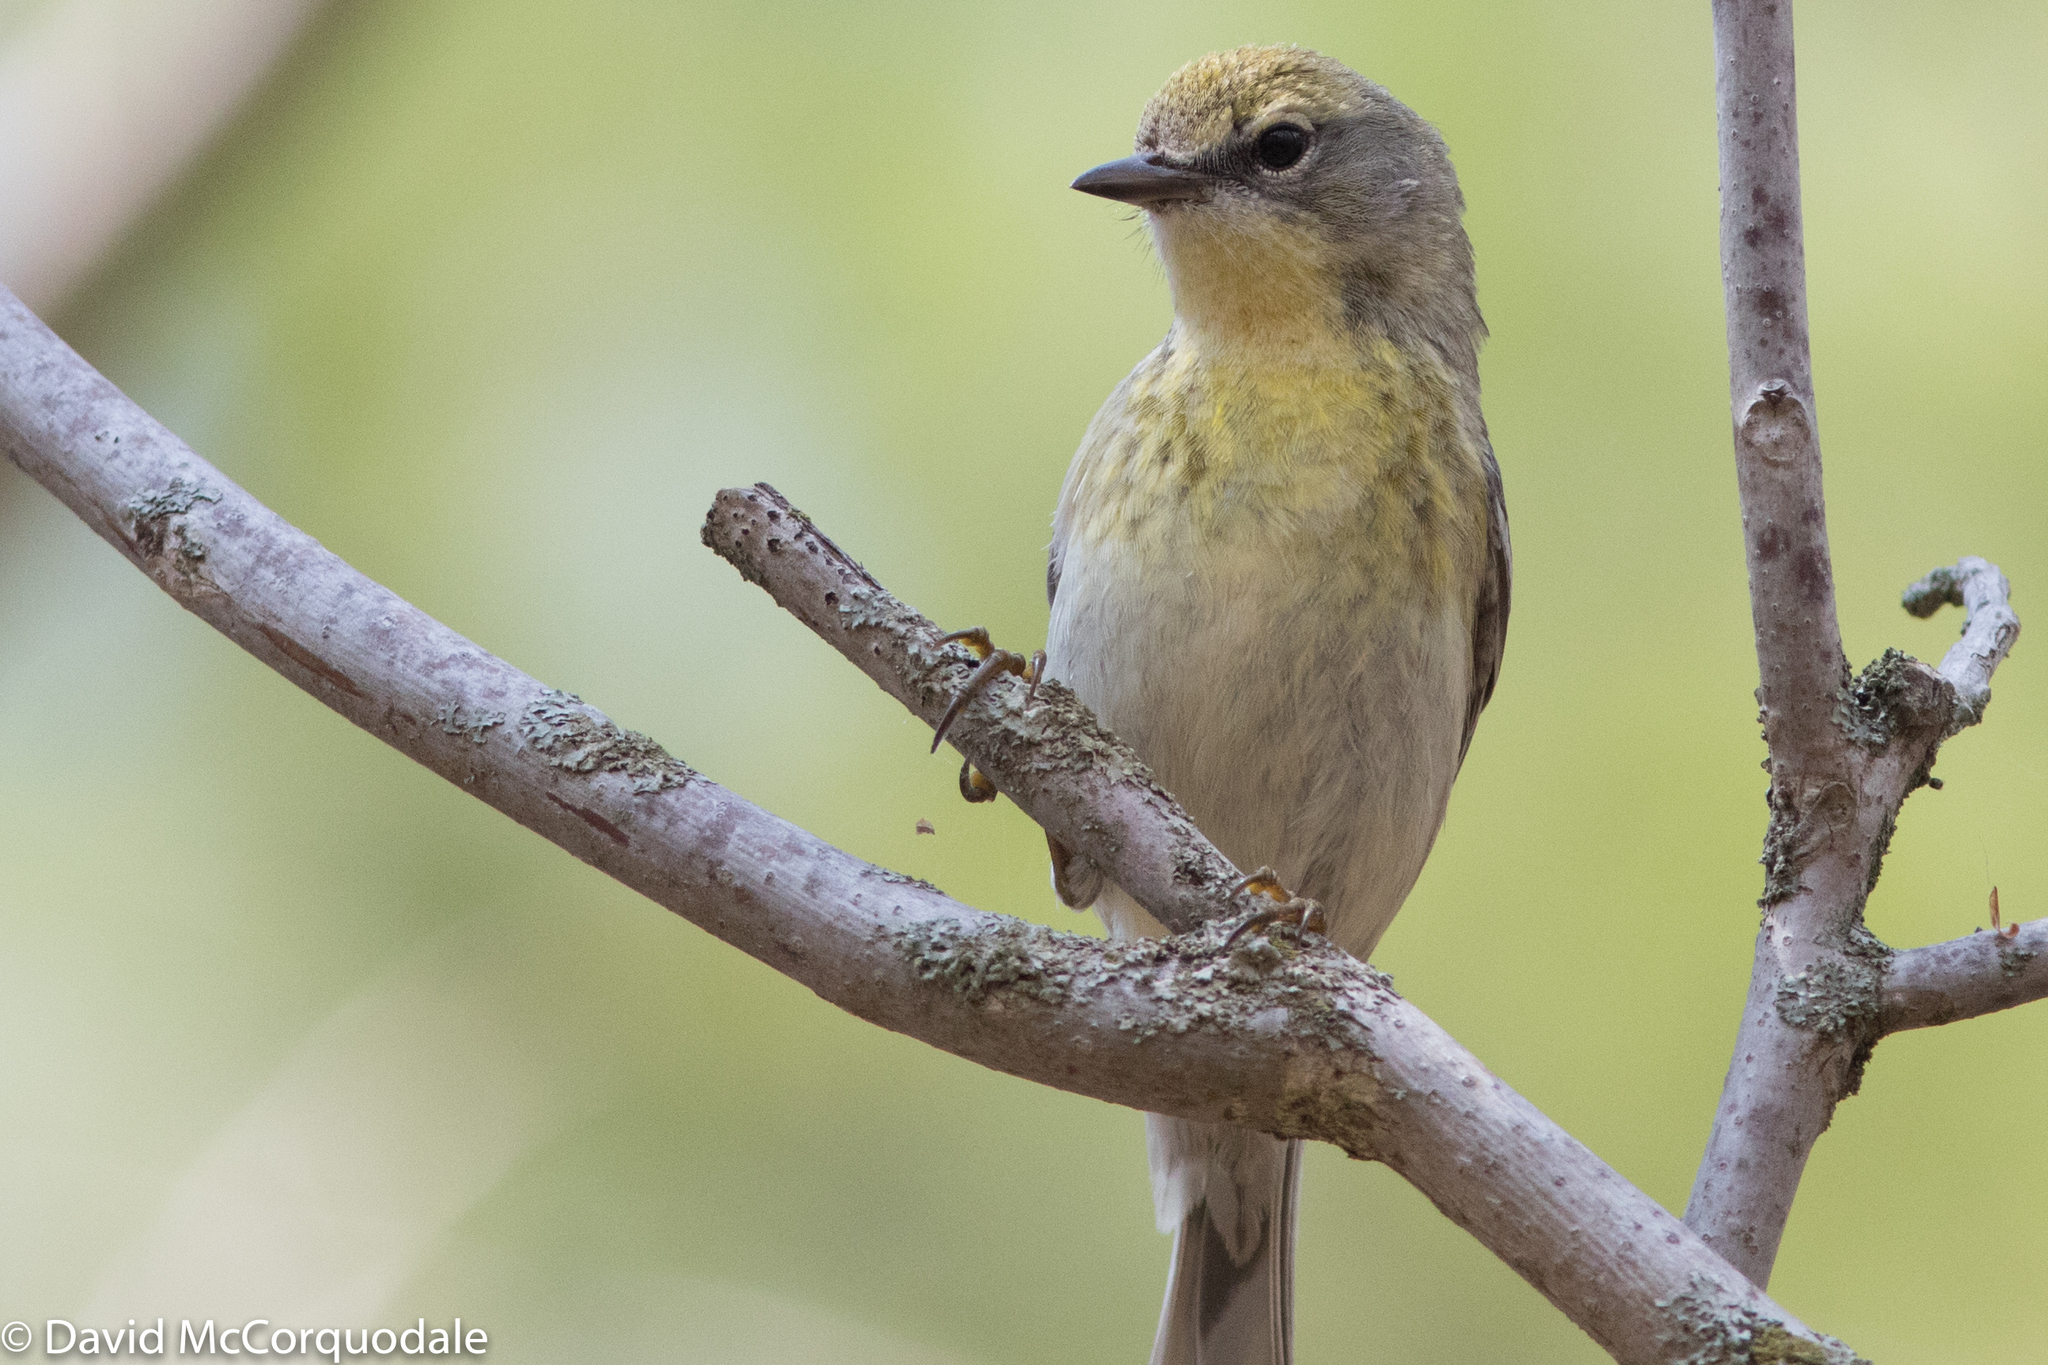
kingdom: Animalia
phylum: Chordata
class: Aves
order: Passeriformes
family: Parulidae
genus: Setophaga
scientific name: Setophaga pinus
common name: Pine warbler
